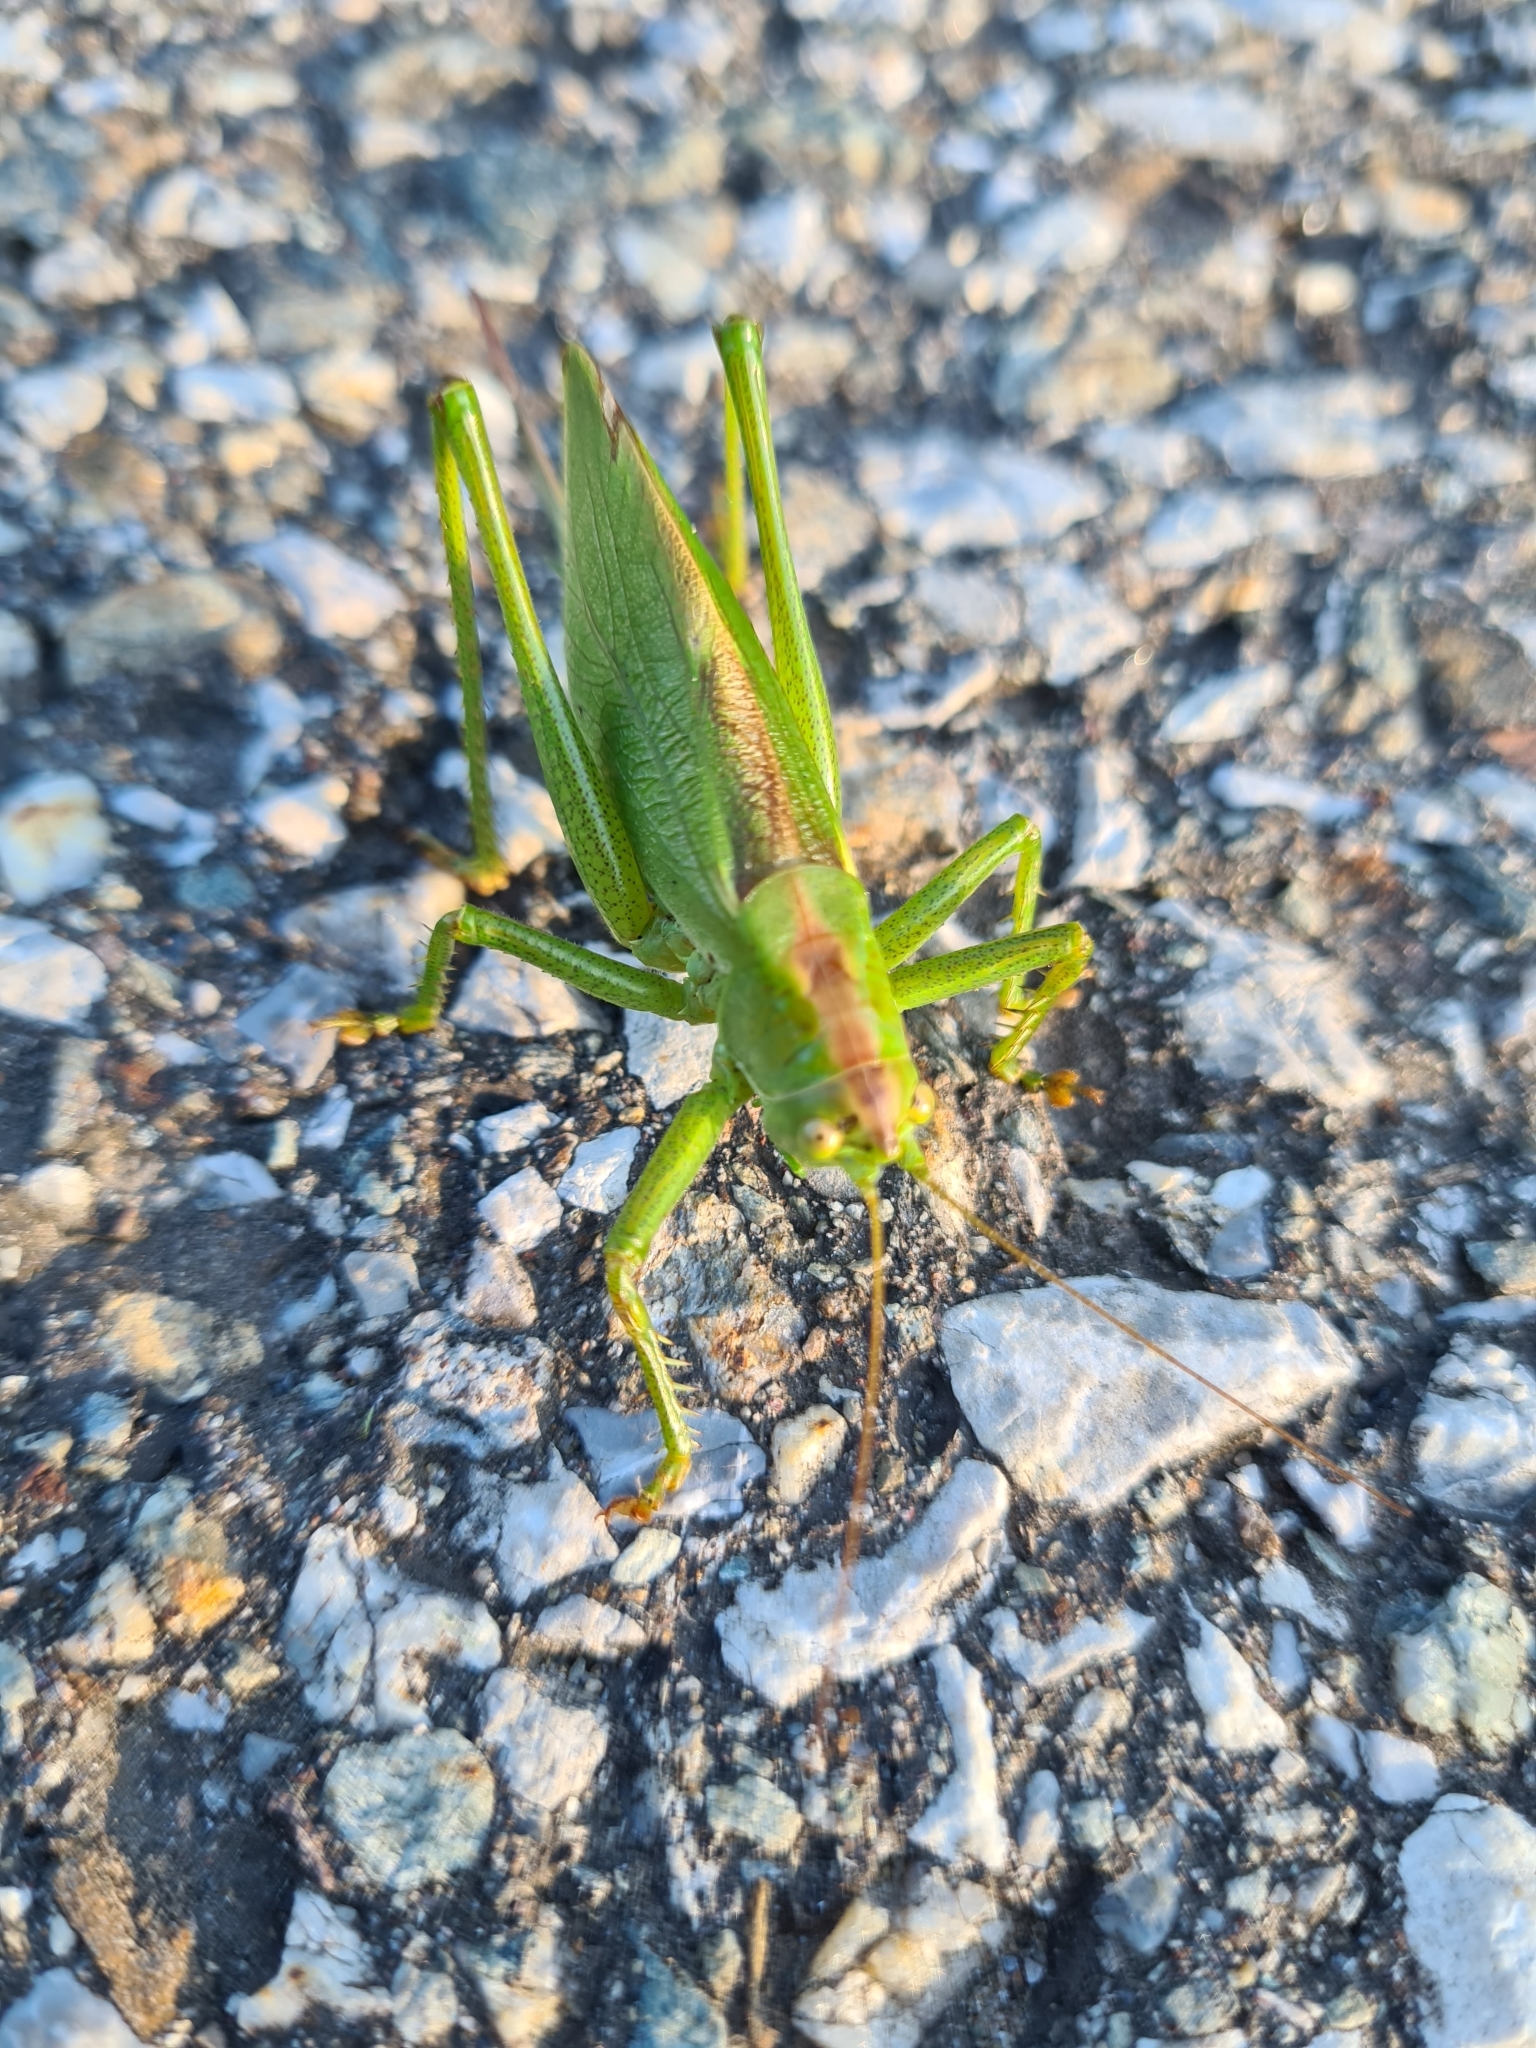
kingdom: Animalia
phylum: Arthropoda
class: Insecta
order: Orthoptera
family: Tettigoniidae
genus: Tettigonia
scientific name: Tettigonia cantans
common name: Upland green bush-cricket
